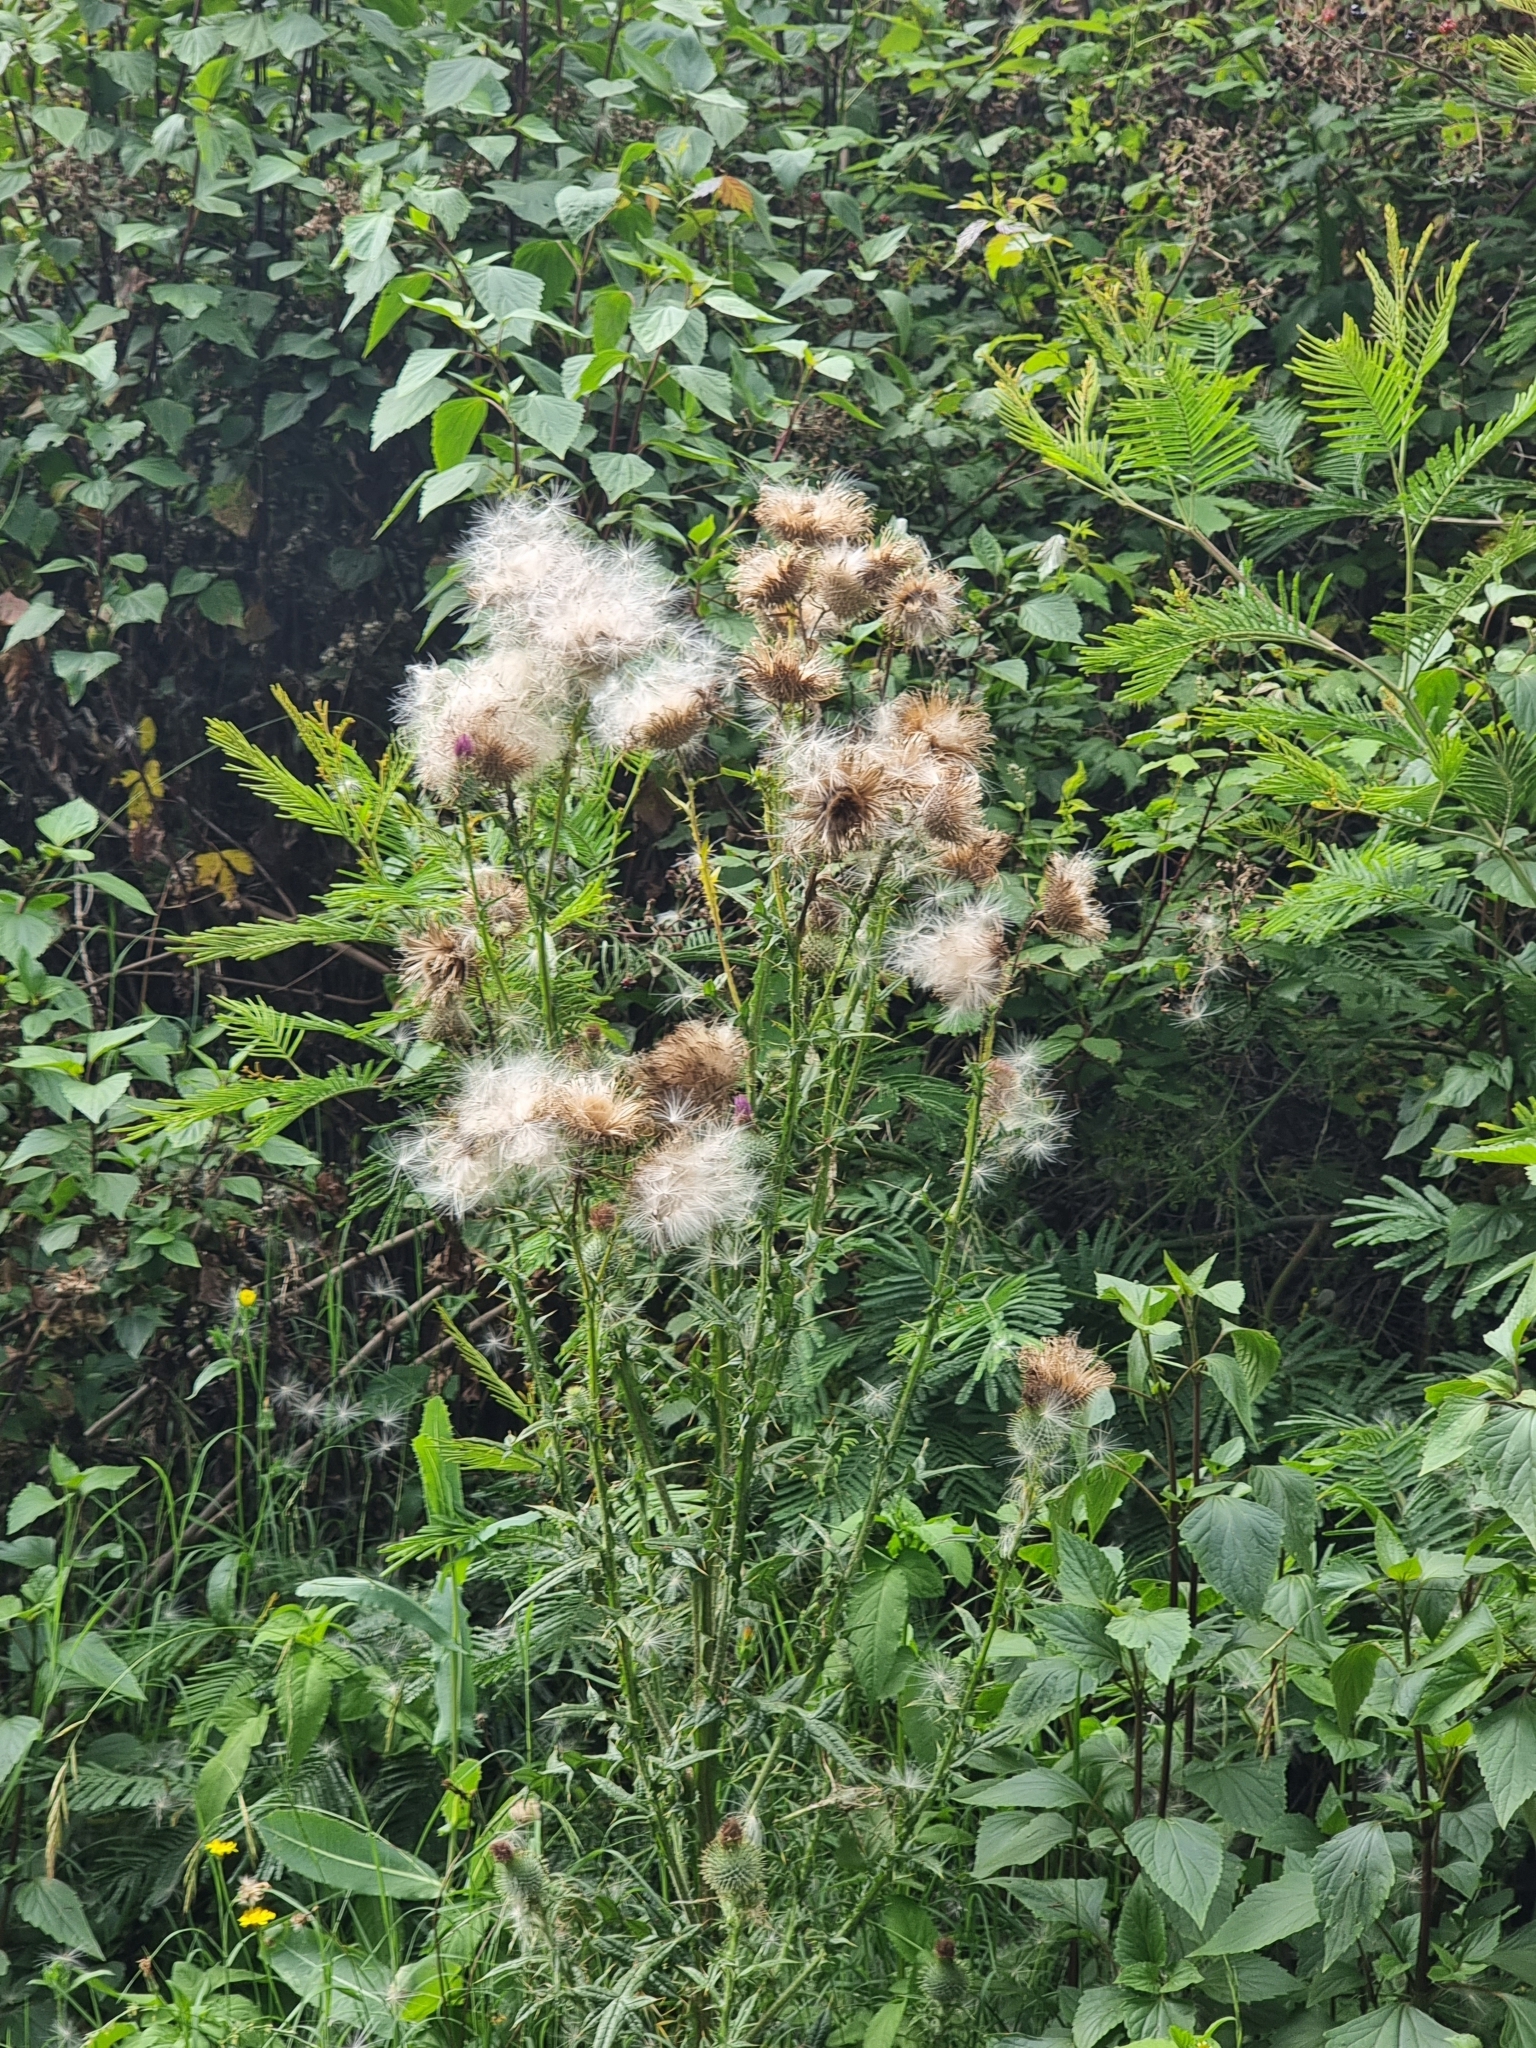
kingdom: Plantae
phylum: Tracheophyta
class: Magnoliopsida
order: Asterales
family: Asteraceae
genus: Cirsium
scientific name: Cirsium vulgare
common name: Bull thistle
